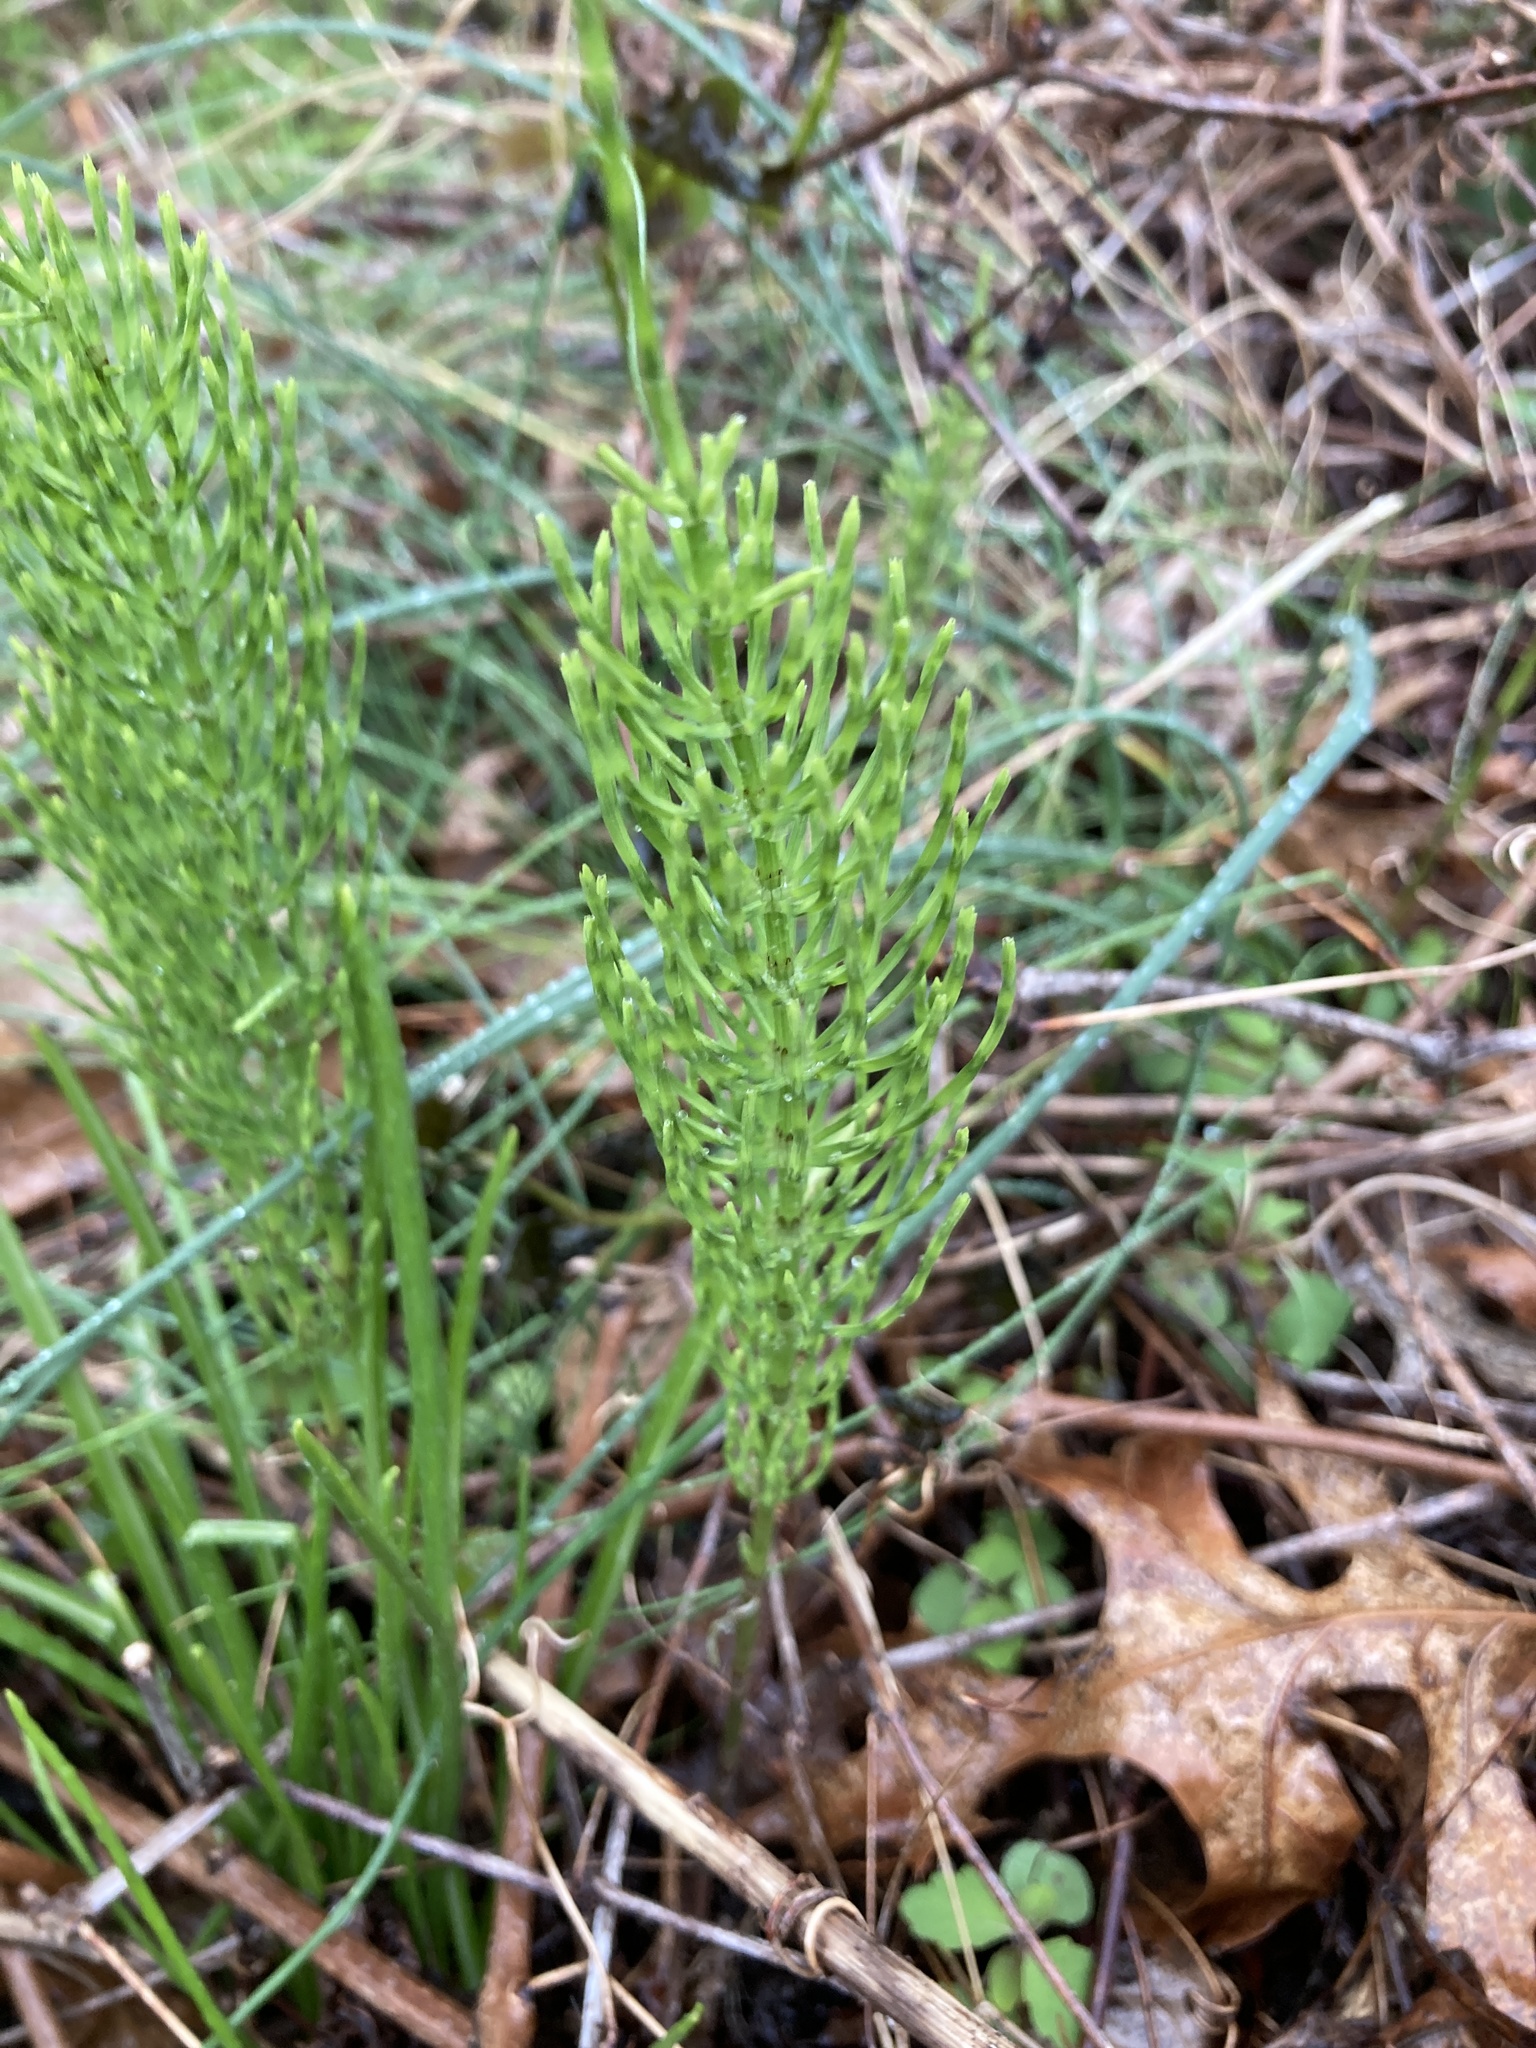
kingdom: Plantae
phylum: Tracheophyta
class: Polypodiopsida
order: Equisetales
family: Equisetaceae
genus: Equisetum
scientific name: Equisetum arvense
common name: Field horsetail
